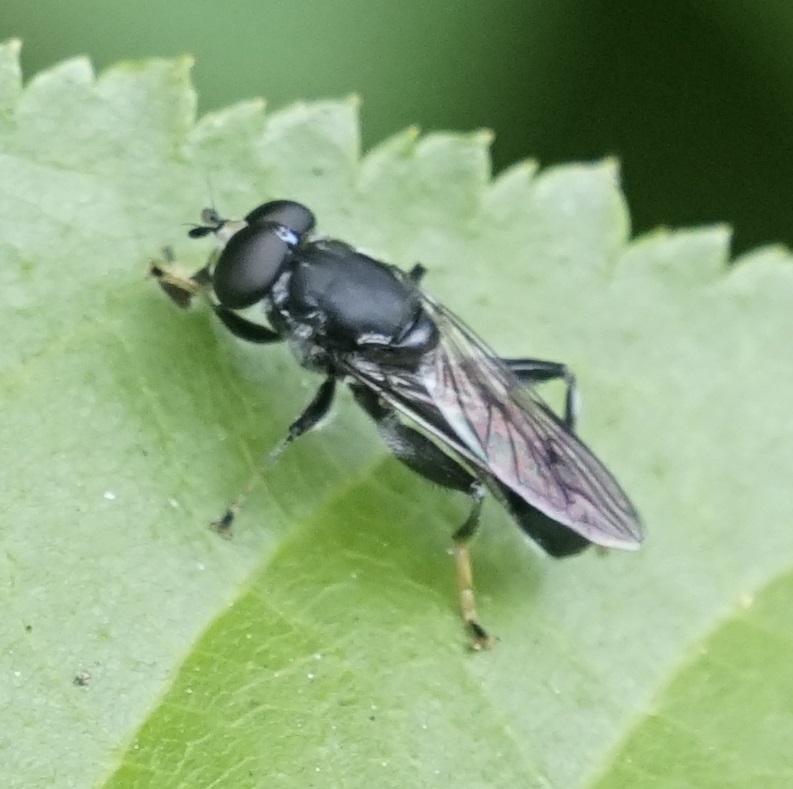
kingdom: Animalia
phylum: Arthropoda
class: Insecta
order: Diptera
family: Syrphidae
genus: Xylota
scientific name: Xylota flavitarsis
